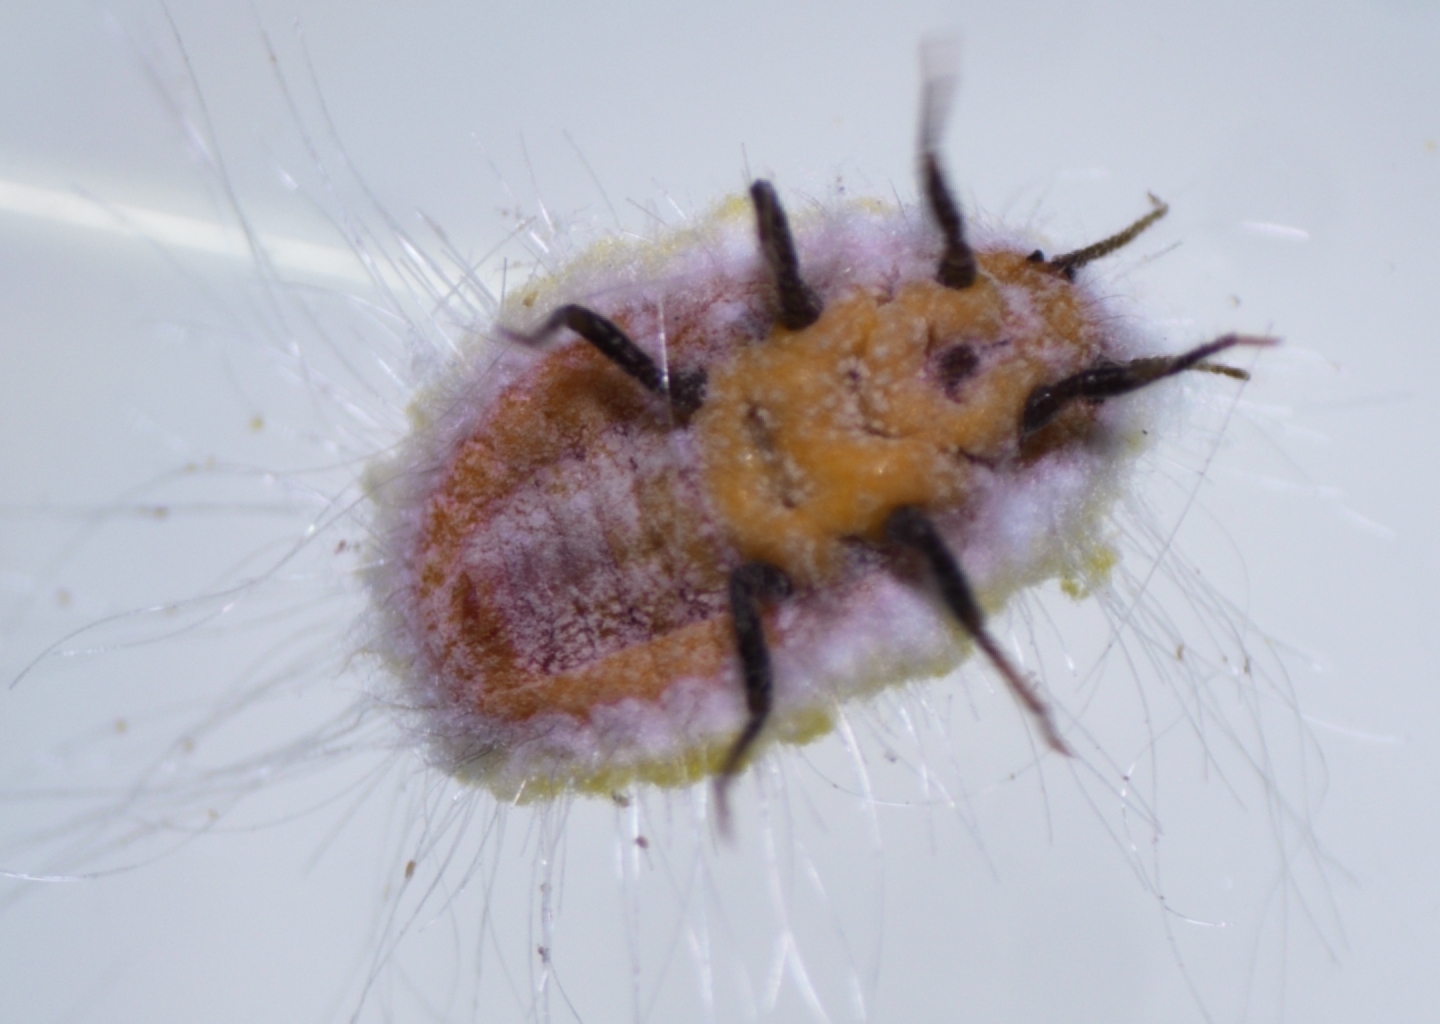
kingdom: Animalia
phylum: Arthropoda
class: Insecta
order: Hemiptera
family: Margarodidae
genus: Icerya
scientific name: Icerya seychellarum
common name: Iceplant scale
